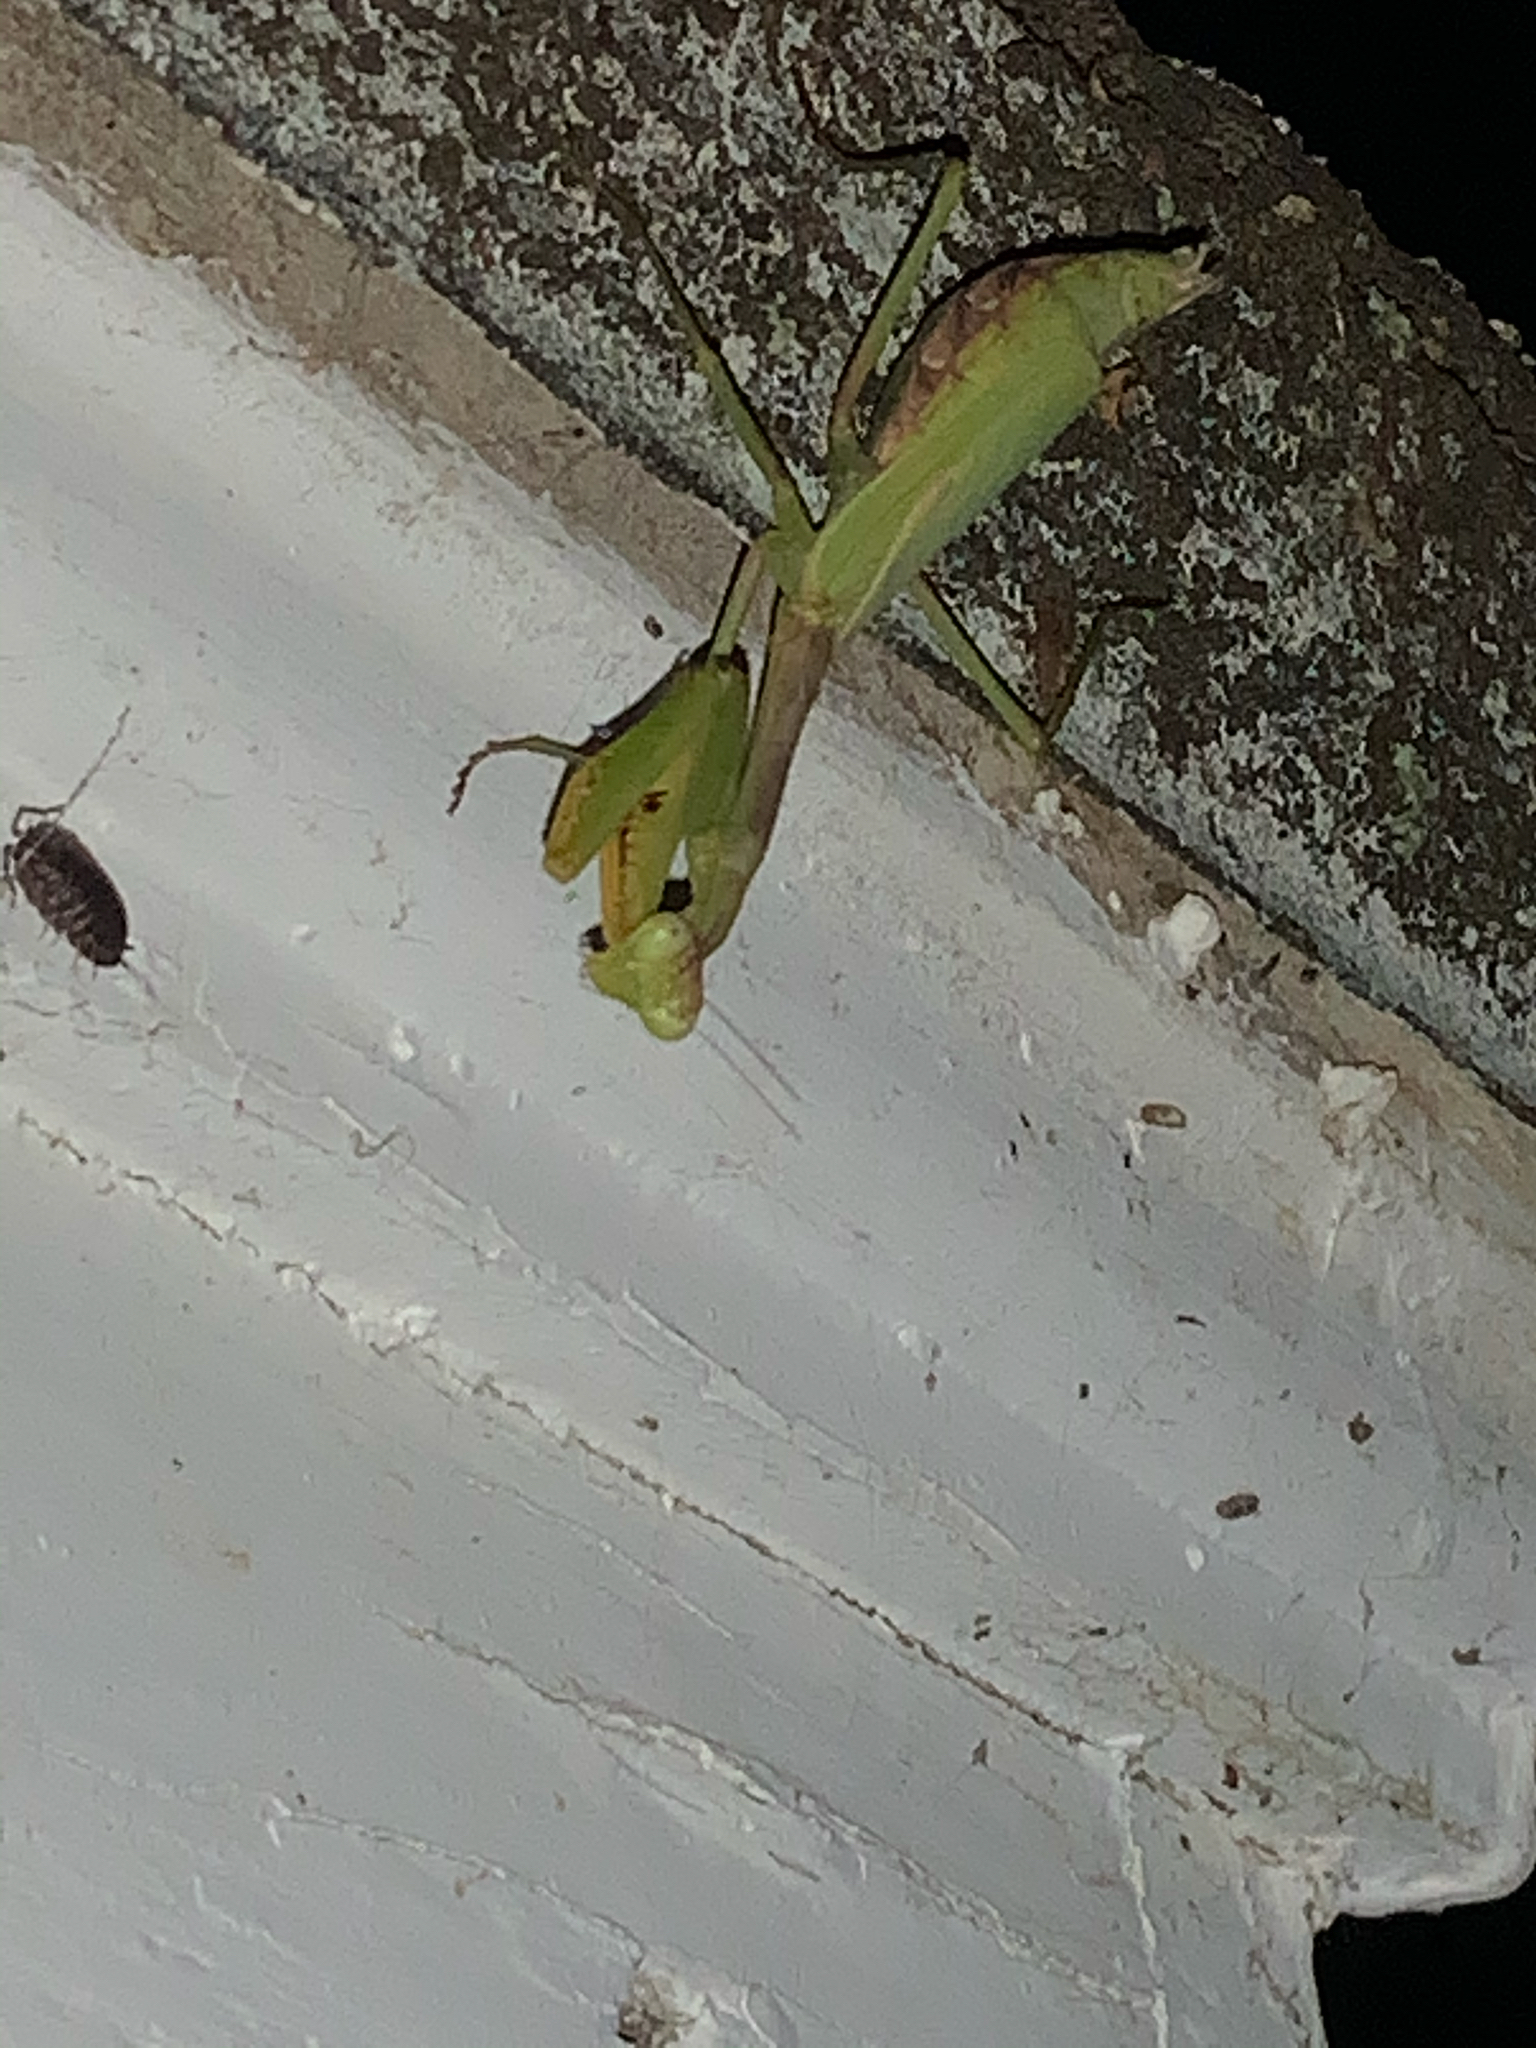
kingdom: Animalia
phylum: Arthropoda
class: Insecta
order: Mantodea
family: Mantidae
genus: Stagmomantis
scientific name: Stagmomantis carolina
